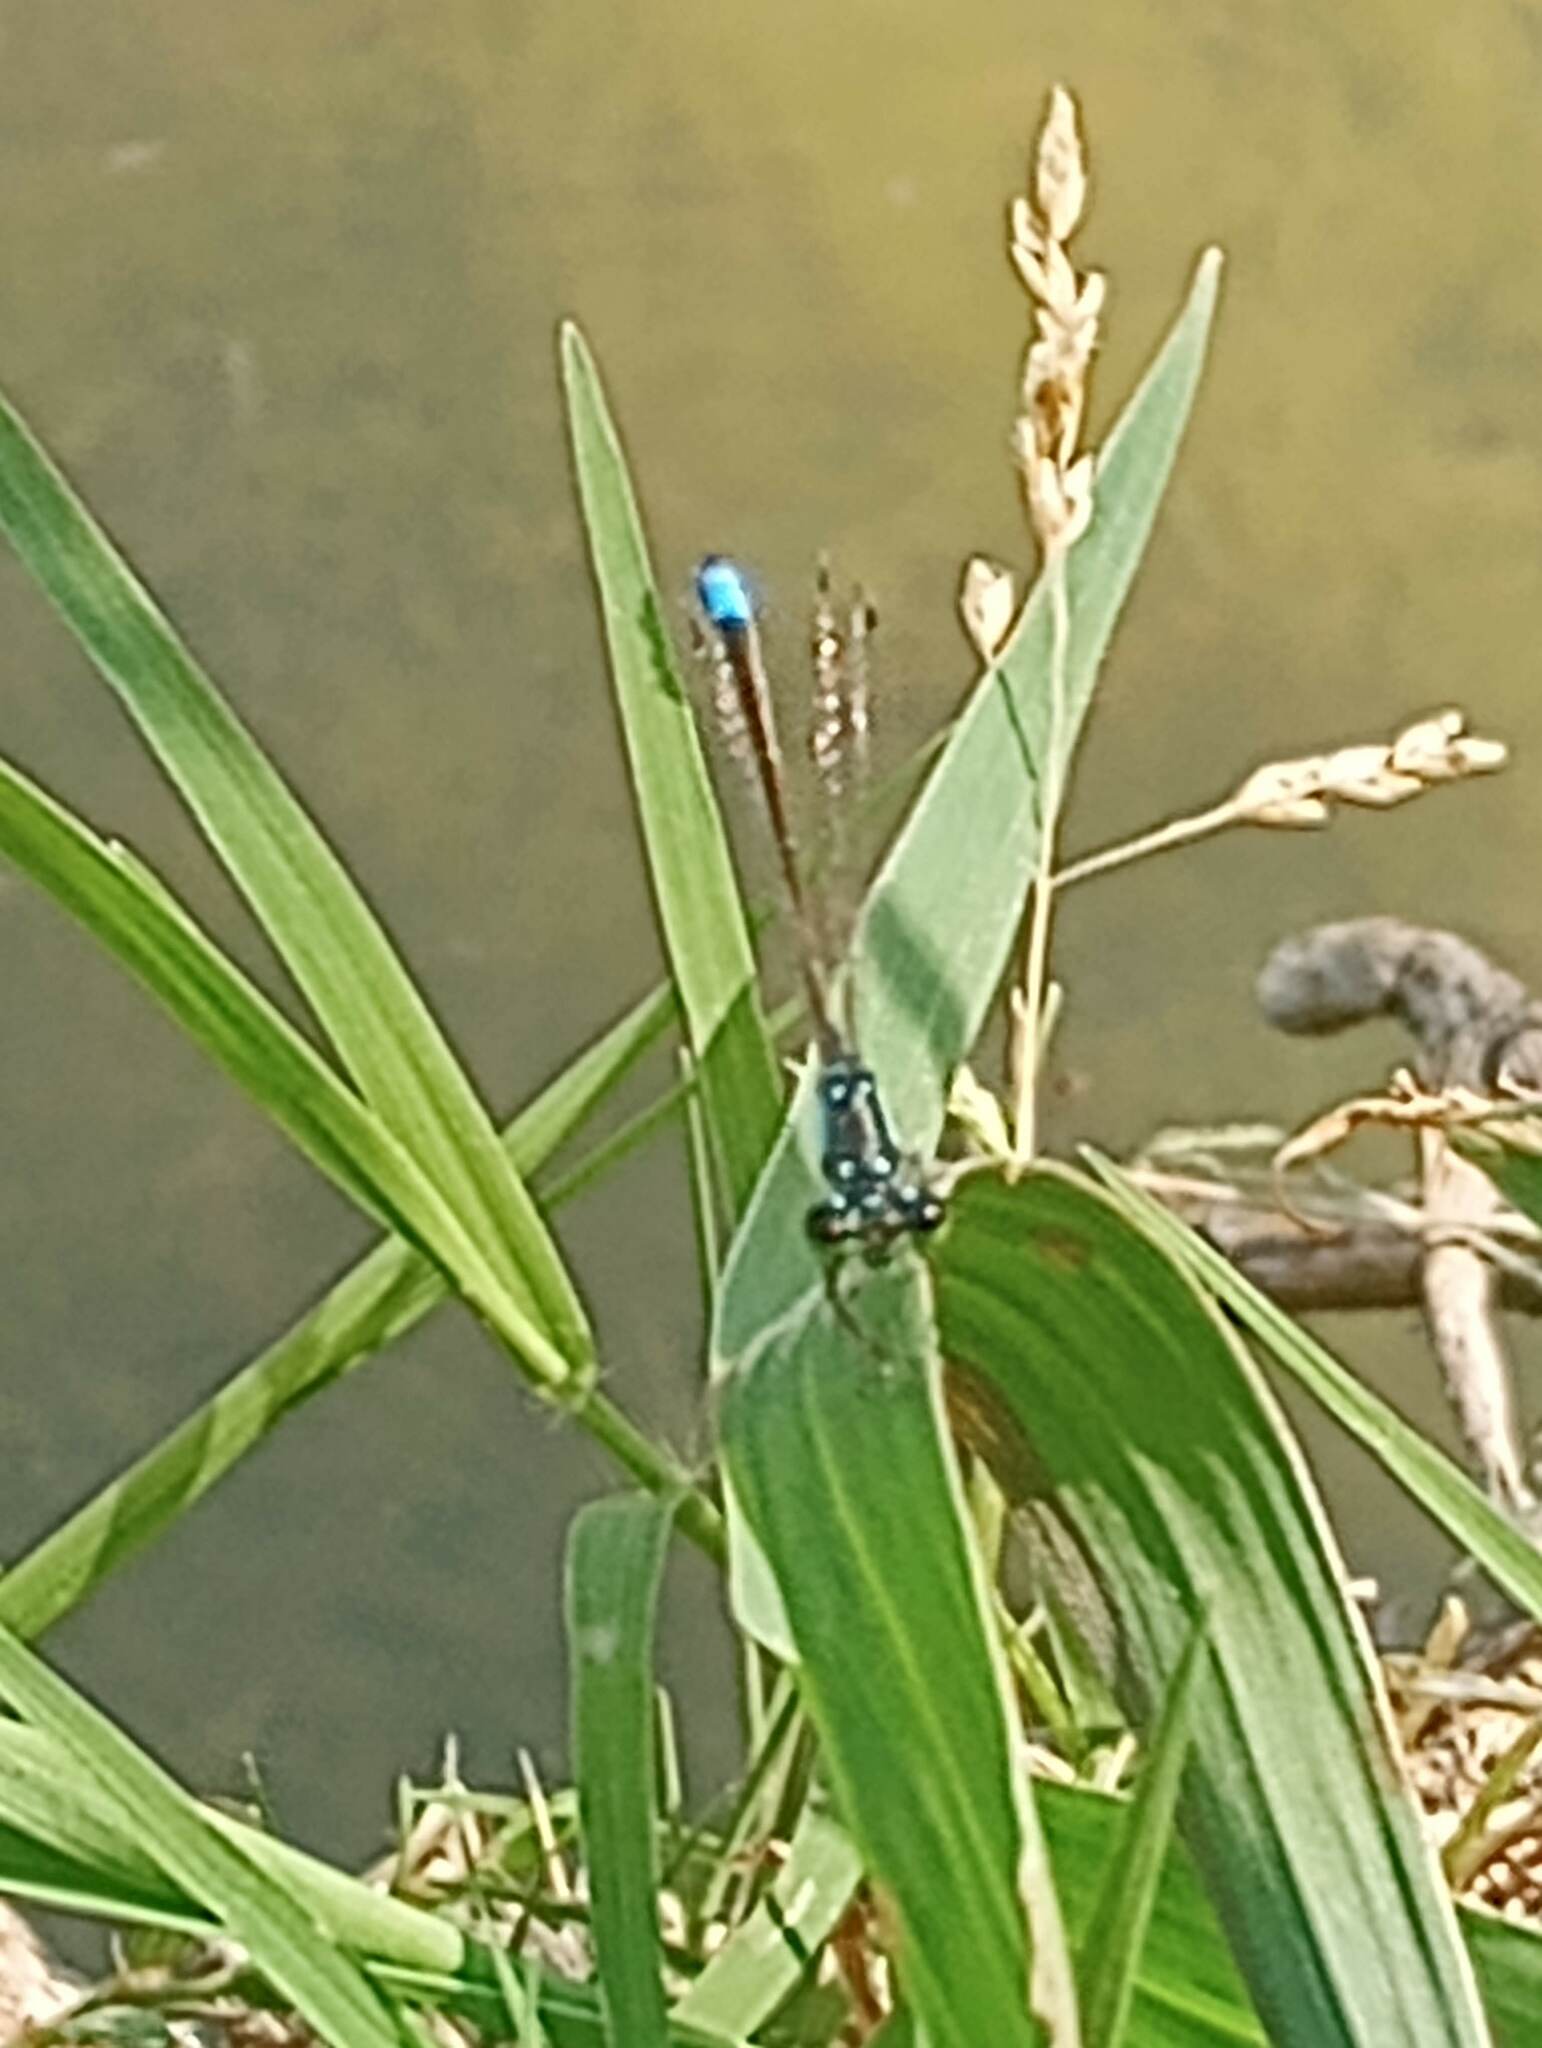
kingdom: Animalia
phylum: Arthropoda
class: Insecta
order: Odonata
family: Coenagrionidae
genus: Ischnura
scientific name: Ischnura cervula
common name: Pacific forktail
